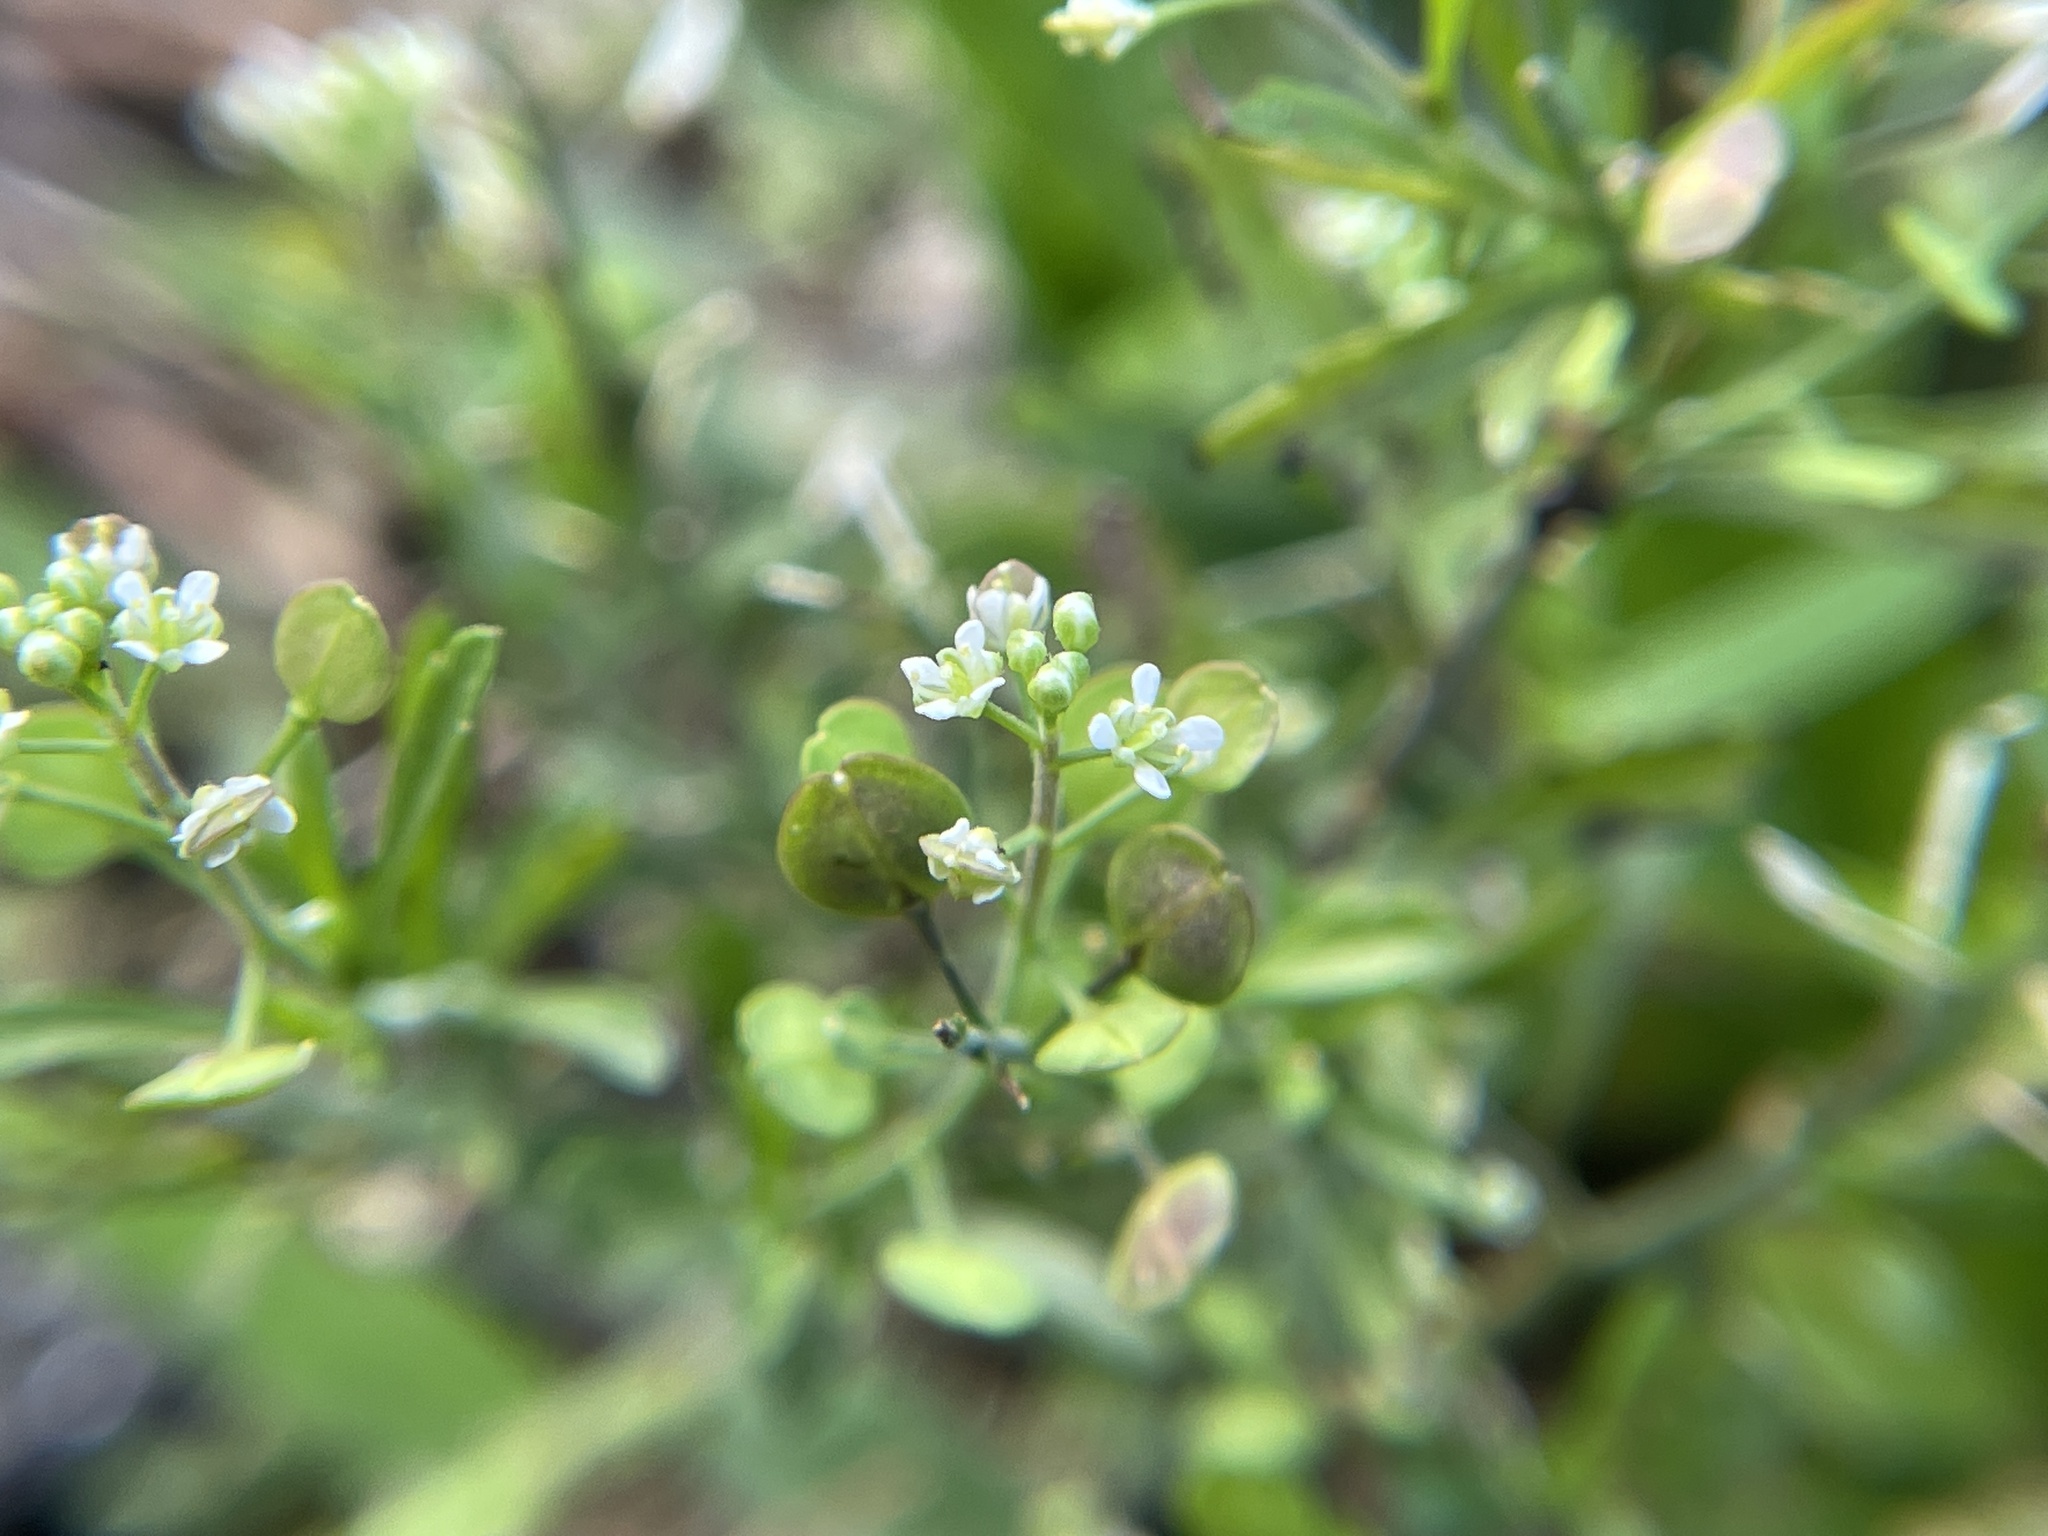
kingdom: Plantae
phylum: Tracheophyta
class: Magnoliopsida
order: Brassicales
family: Brassicaceae
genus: Lepidium
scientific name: Lepidium virginicum
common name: Least pepperwort
